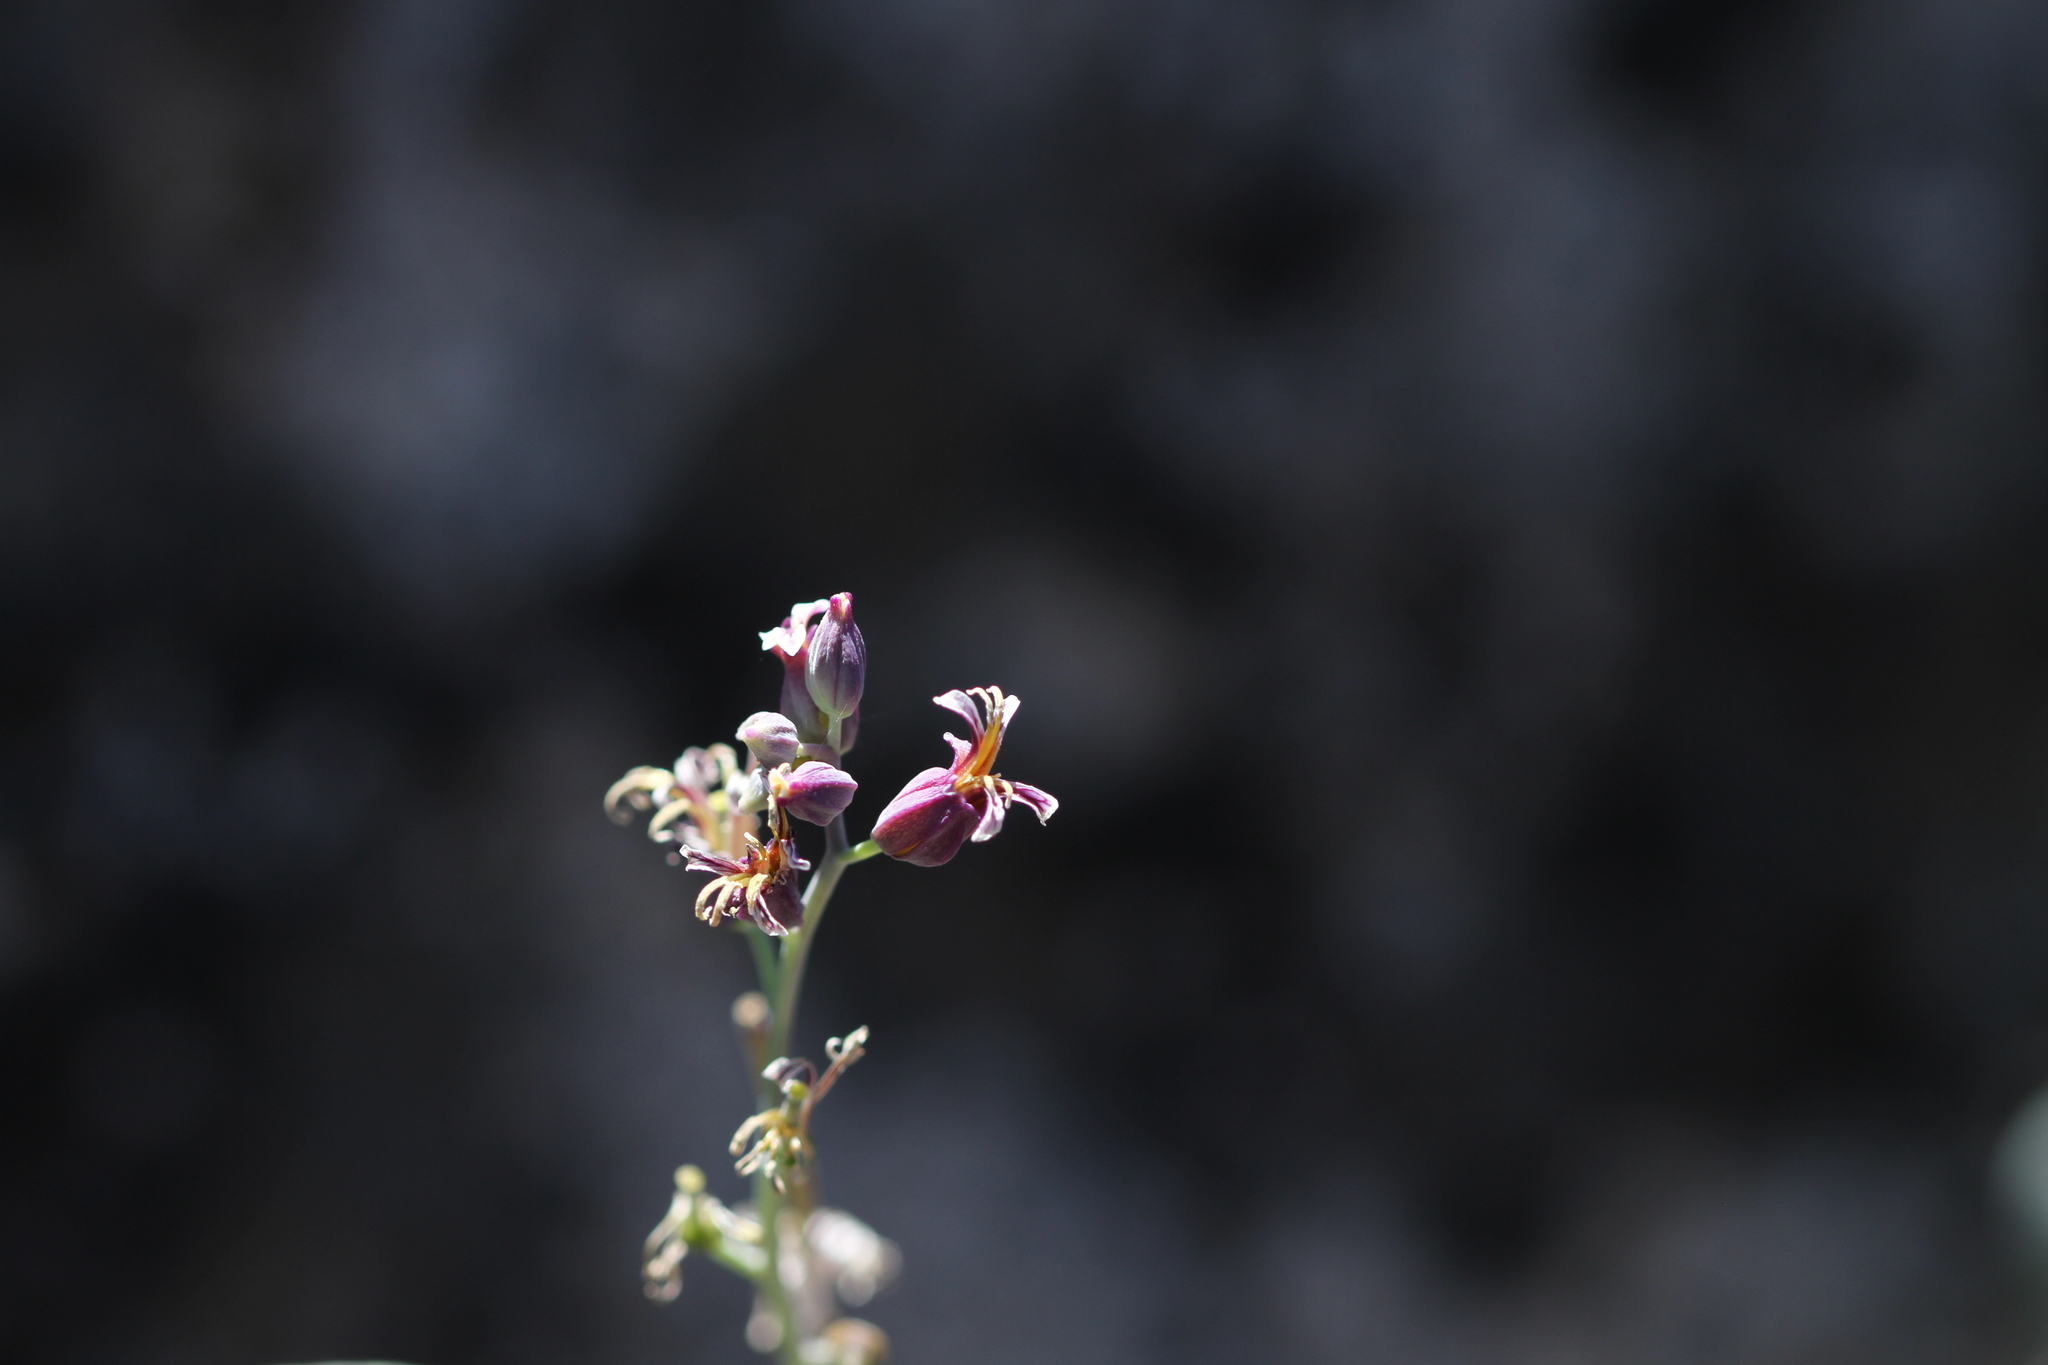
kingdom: Plantae
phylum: Tracheophyta
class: Magnoliopsida
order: Brassicales
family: Brassicaceae
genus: Streptanthus
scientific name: Streptanthus tortuosus
